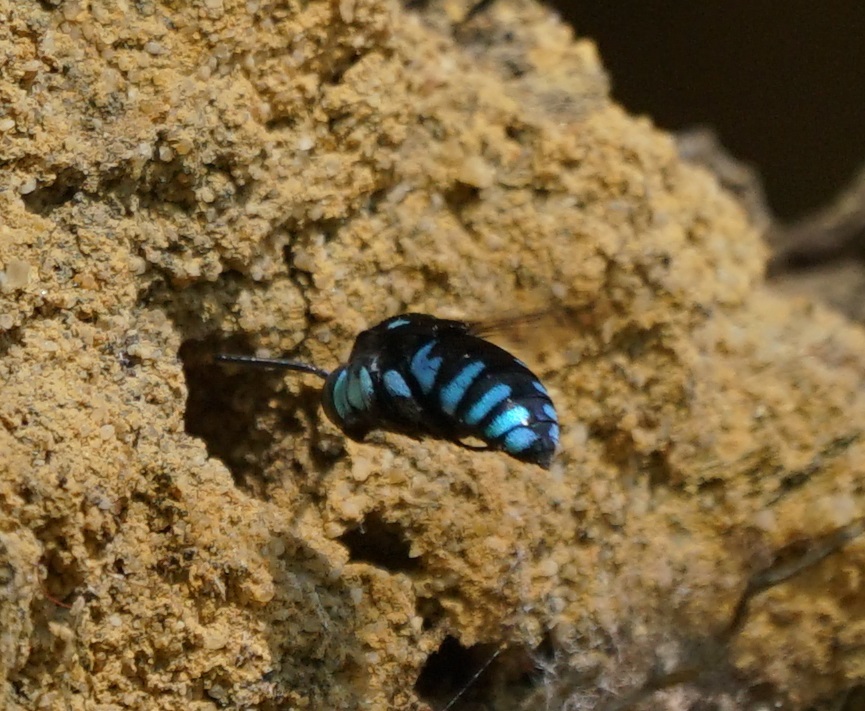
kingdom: Animalia
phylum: Arthropoda
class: Insecta
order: Hymenoptera
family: Apidae
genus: Thyreus
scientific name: Thyreus nitidulus
